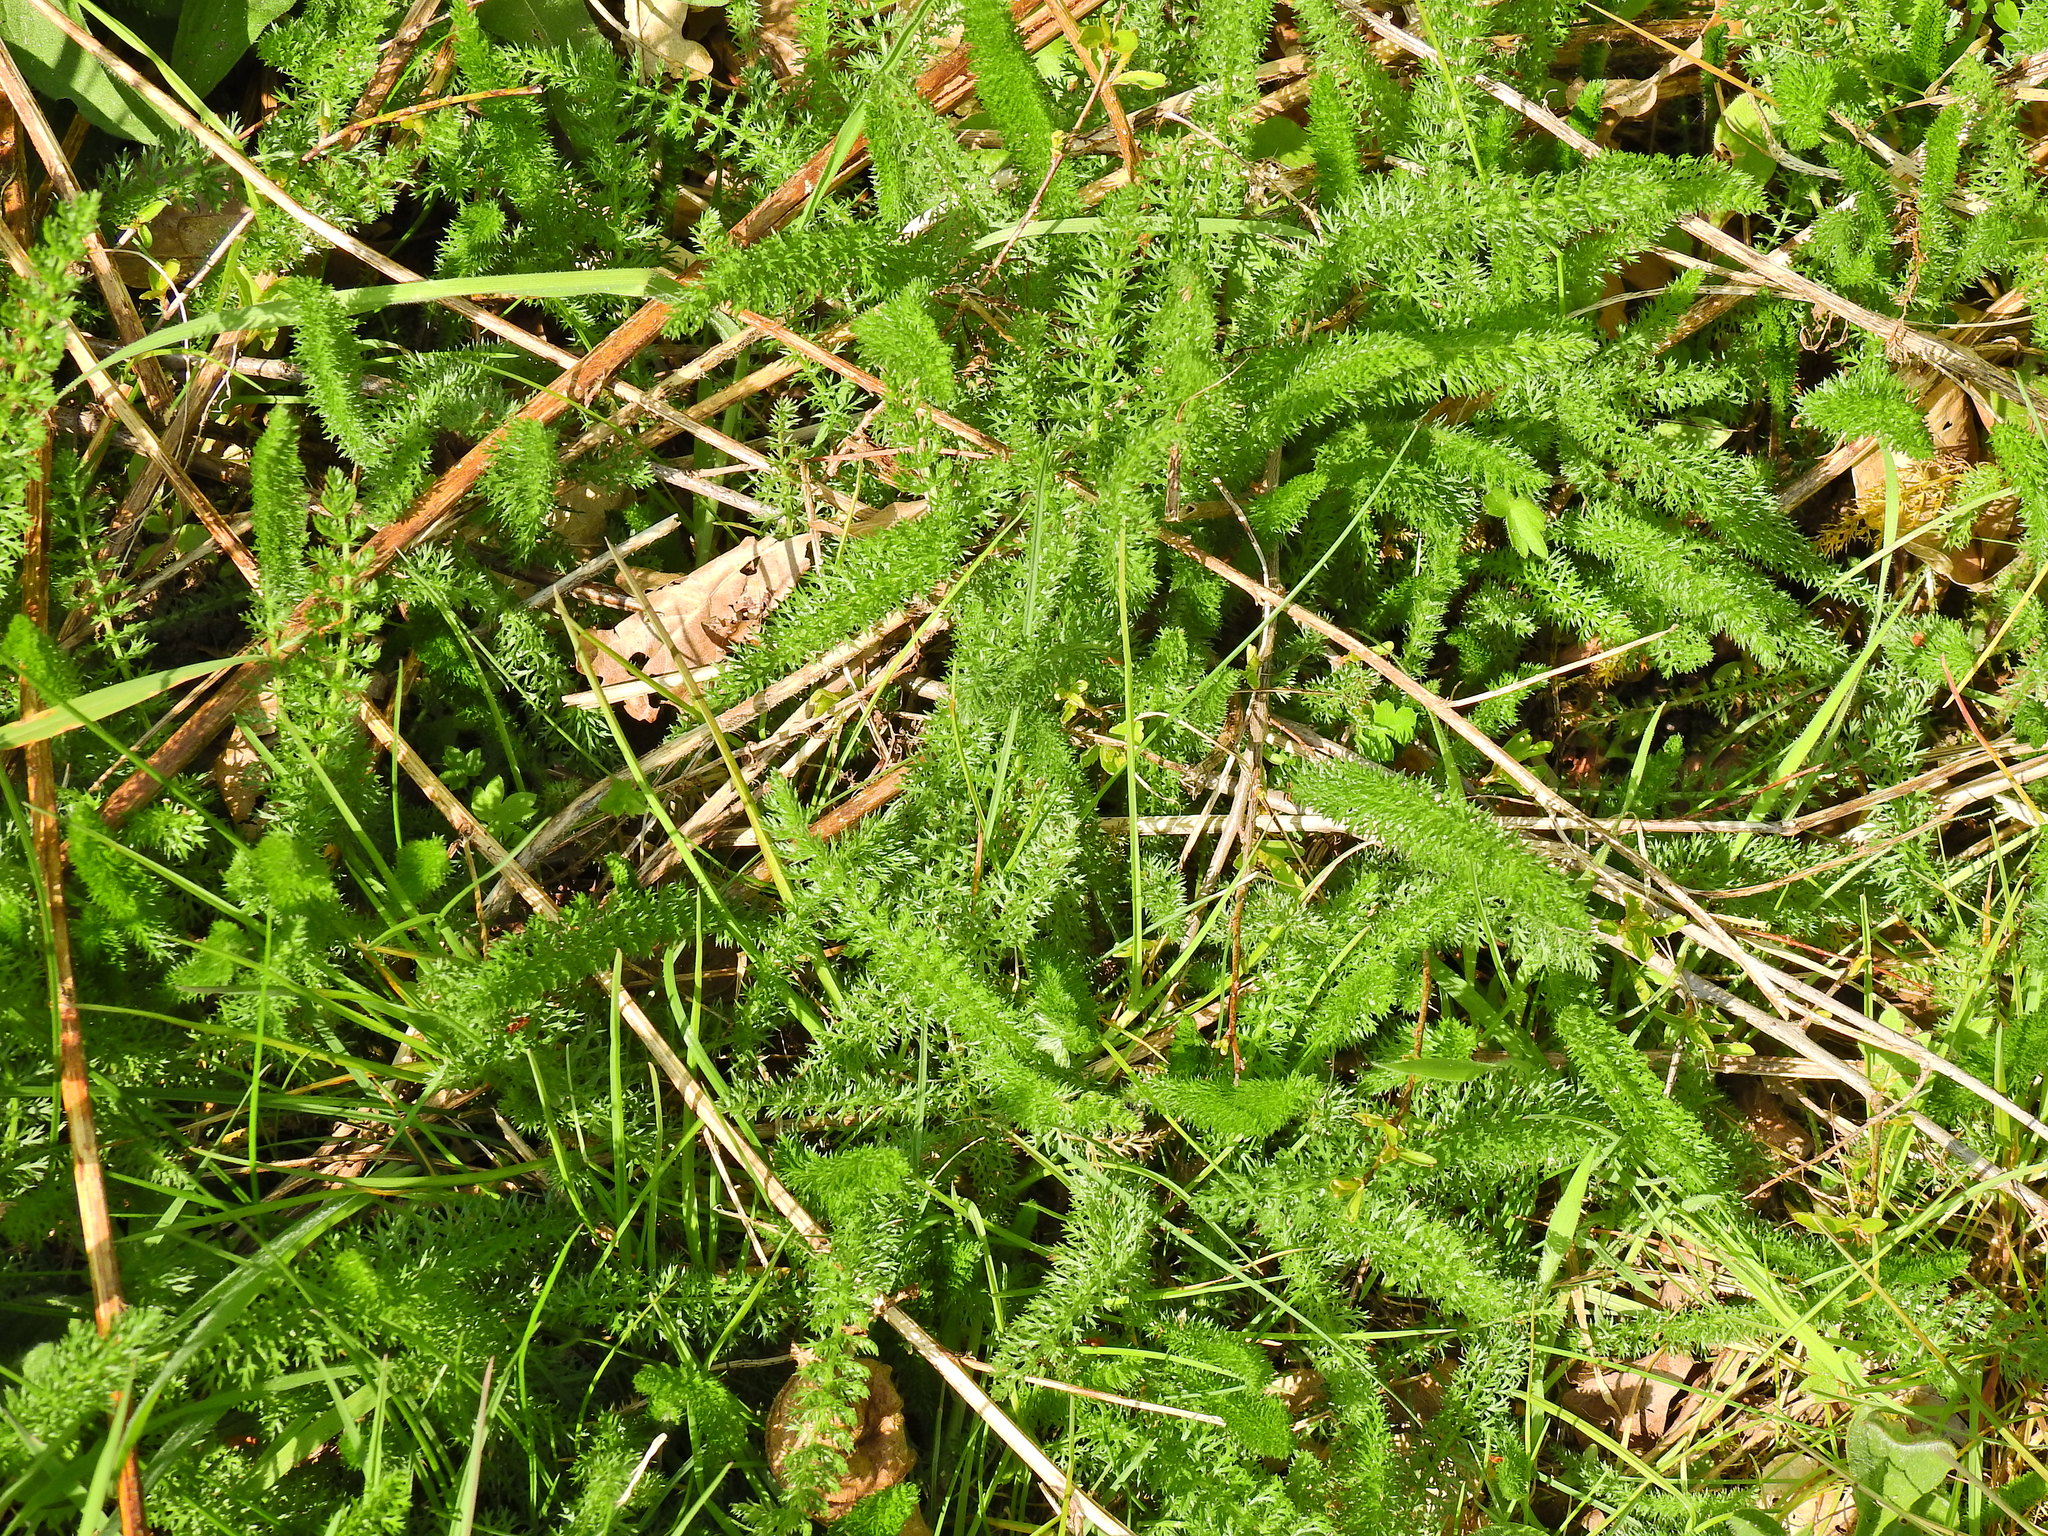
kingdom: Plantae
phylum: Tracheophyta
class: Magnoliopsida
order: Asterales
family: Asteraceae
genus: Achillea
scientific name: Achillea millefolium
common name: Yarrow
